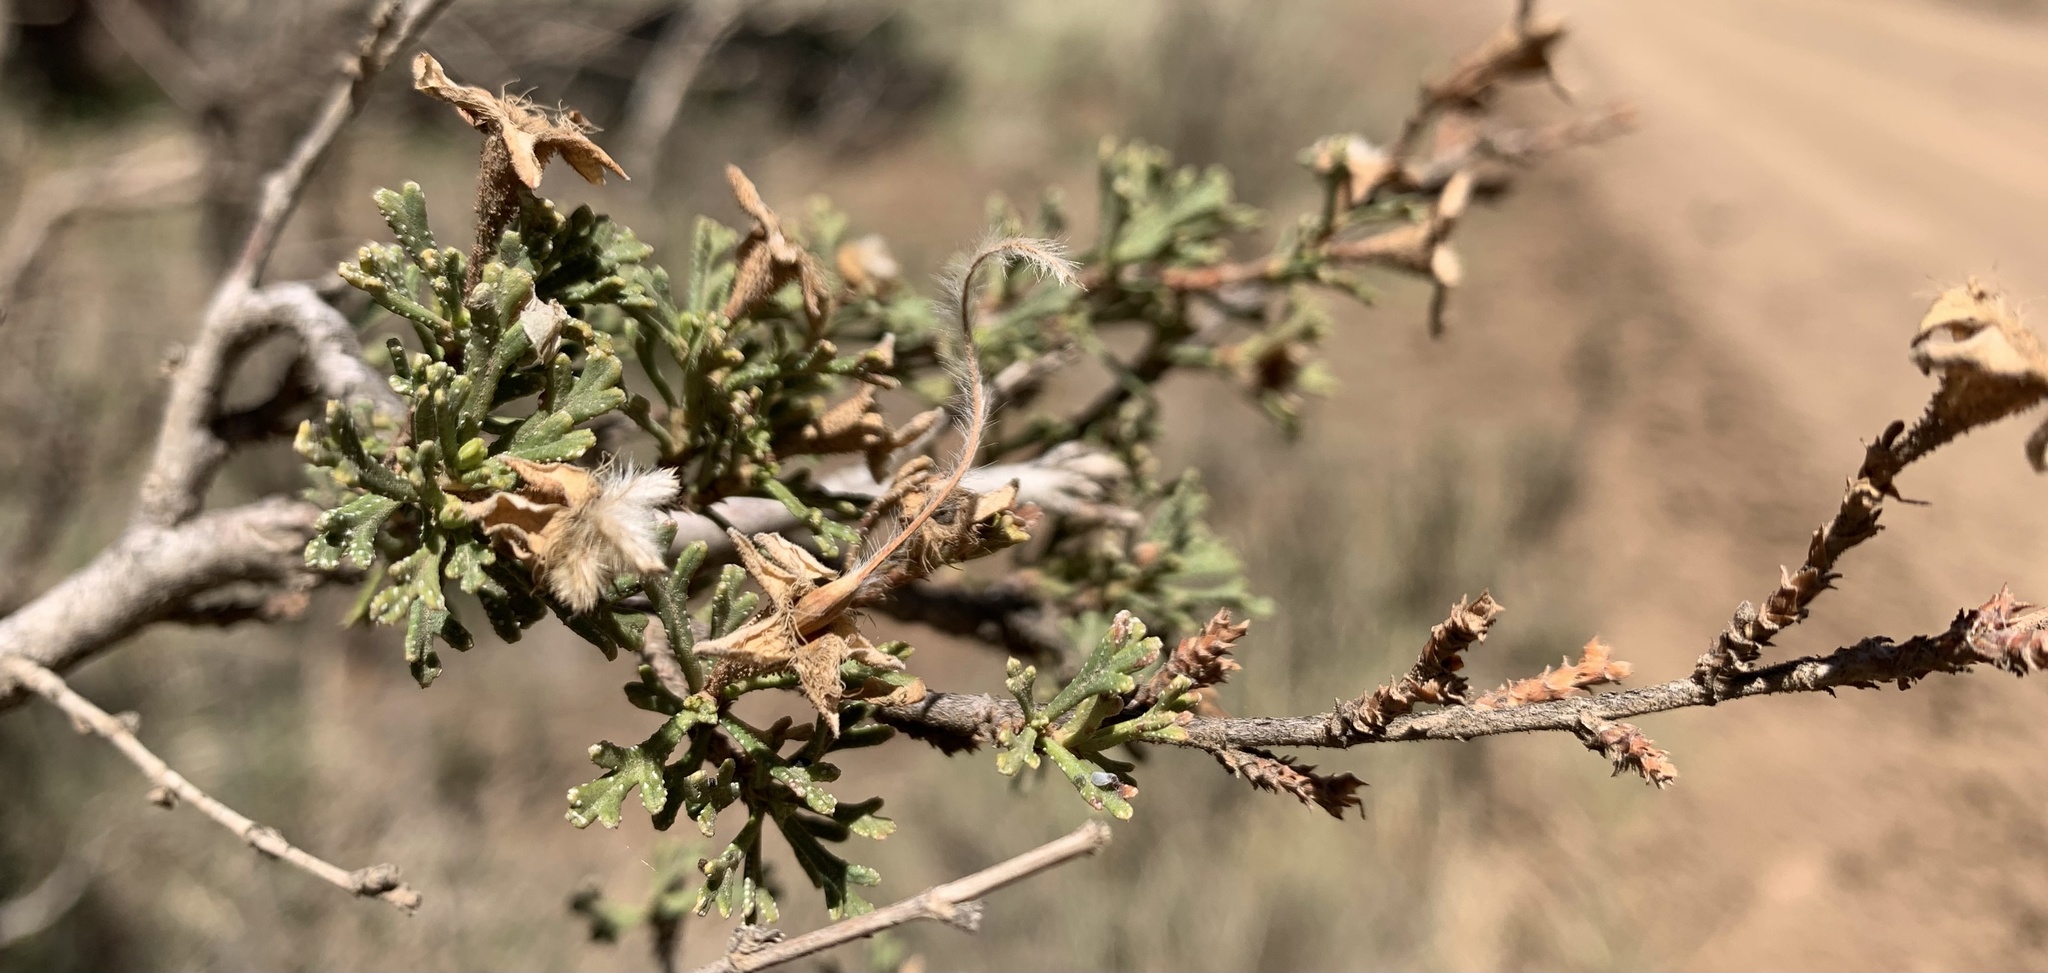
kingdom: Plantae
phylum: Tracheophyta
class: Magnoliopsida
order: Rosales
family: Rosaceae
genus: Purshia
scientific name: Purshia stansburiana
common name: Stansbury's cliffrose
